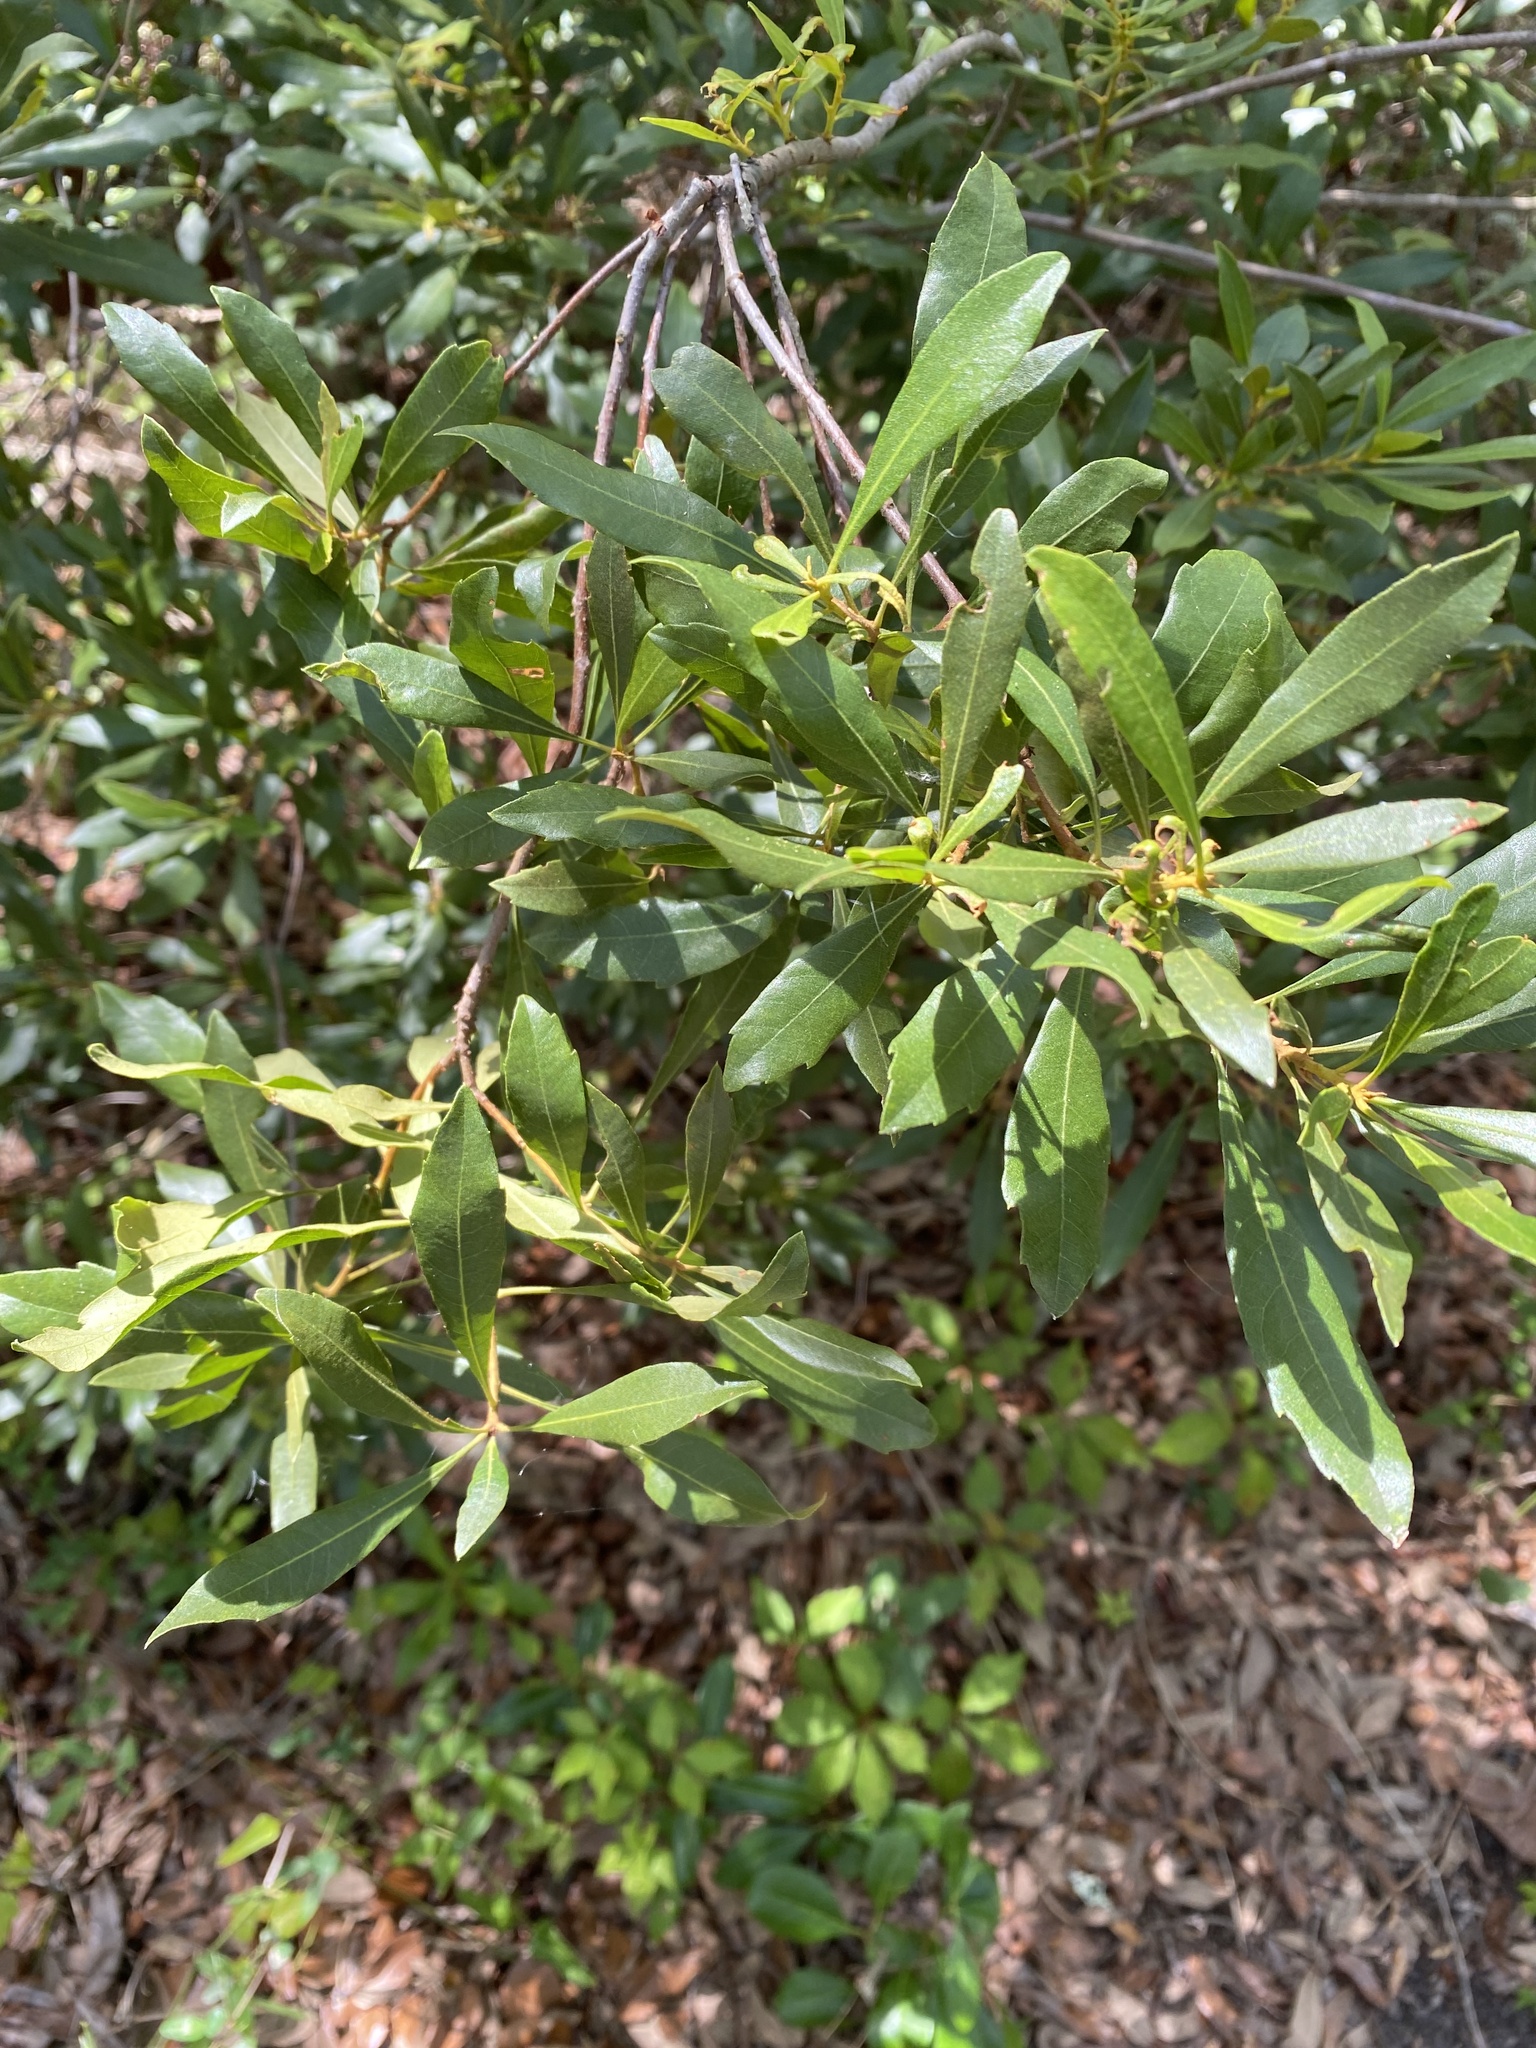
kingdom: Plantae
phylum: Tracheophyta
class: Magnoliopsida
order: Fagales
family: Myricaceae
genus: Morella
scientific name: Morella cerifera
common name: Wax myrtle
